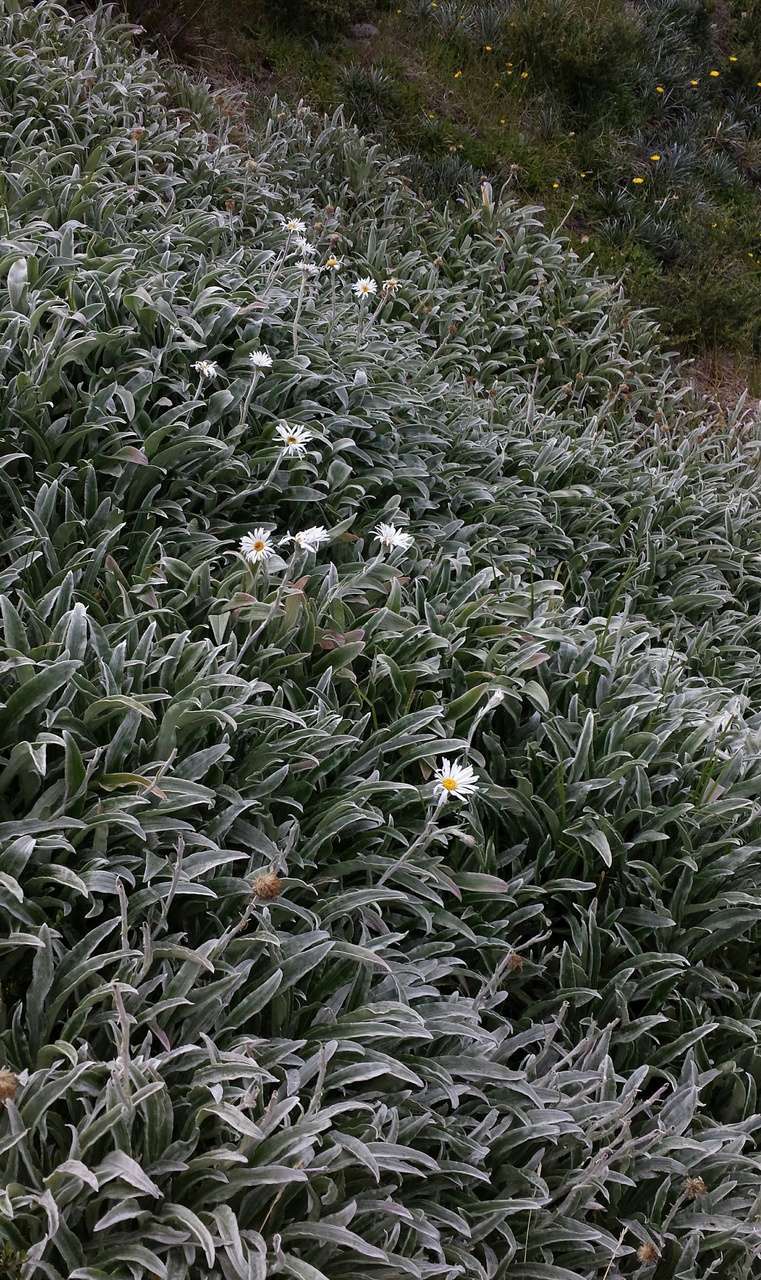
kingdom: Plantae
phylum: Tracheophyta
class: Magnoliopsida
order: Asterales
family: Asteraceae
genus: Celmisia
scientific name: Celmisia sericophylla
